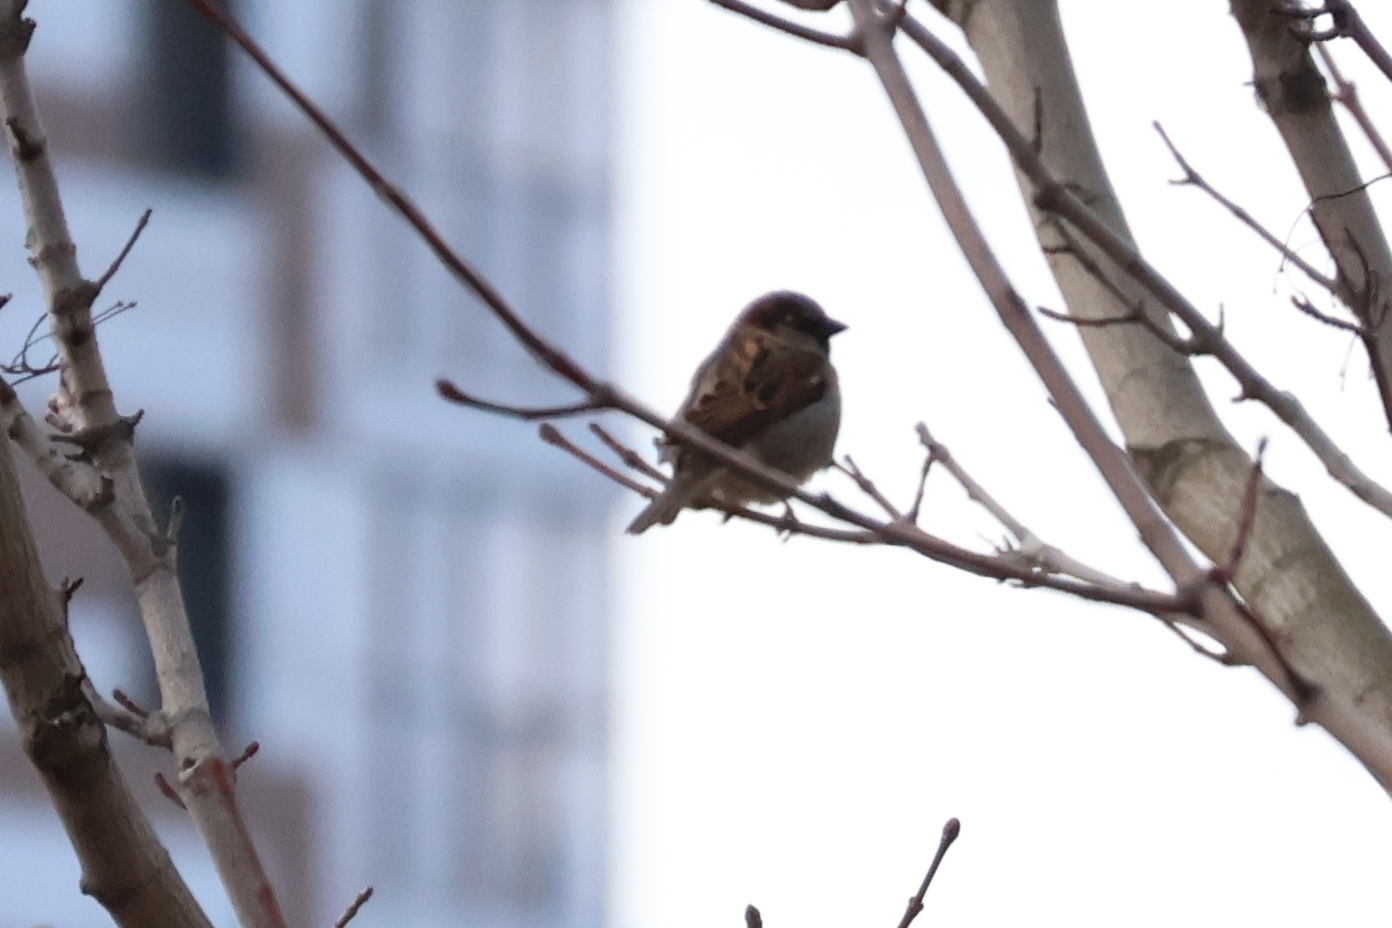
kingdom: Animalia
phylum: Chordata
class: Aves
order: Passeriformes
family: Passeridae
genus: Passer
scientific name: Passer domesticus
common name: House sparrow
